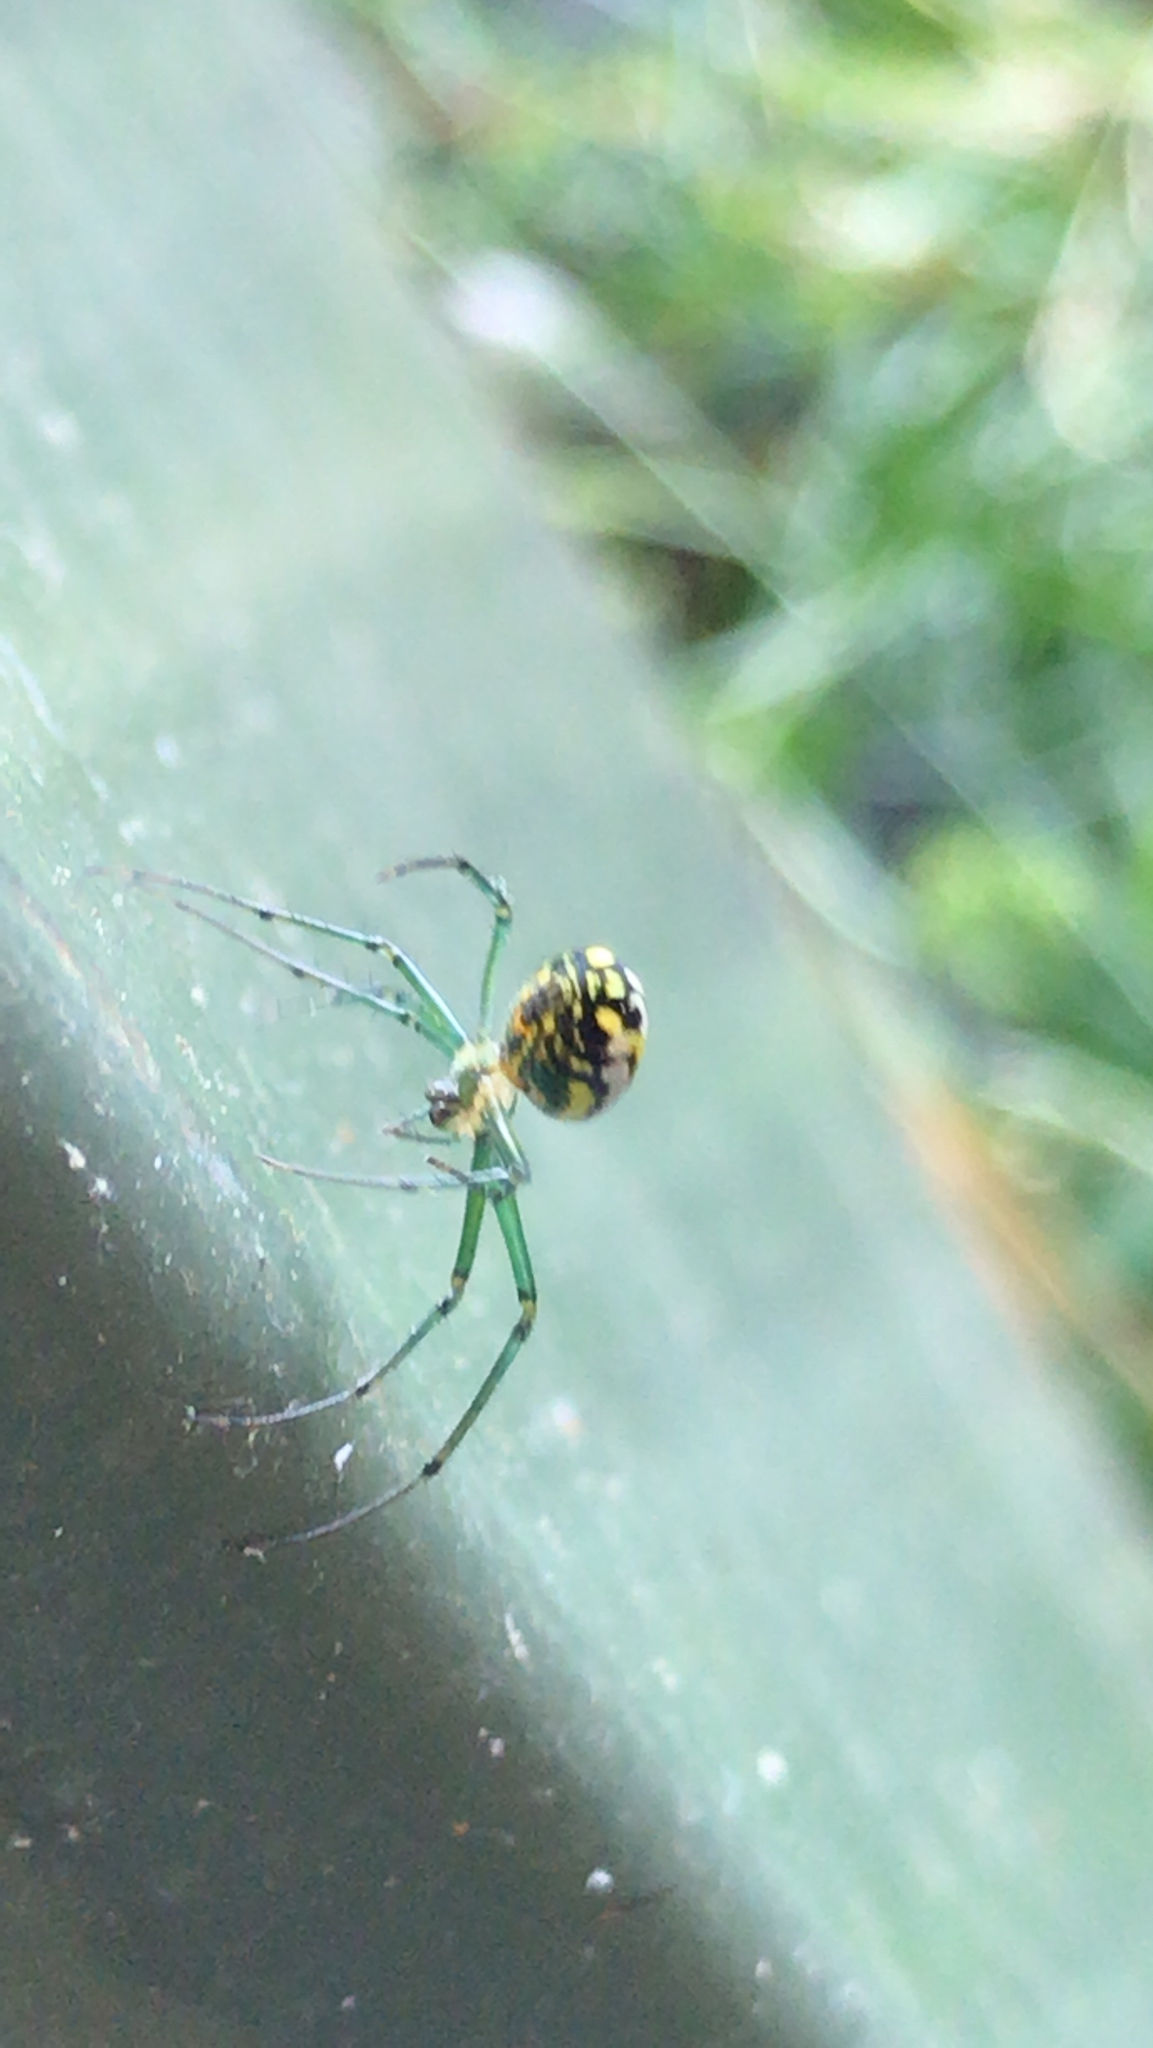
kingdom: Animalia
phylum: Arthropoda
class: Arachnida
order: Araneae
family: Tetragnathidae
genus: Leucauge
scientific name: Leucauge venusta
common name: Longjawed orb weavers
